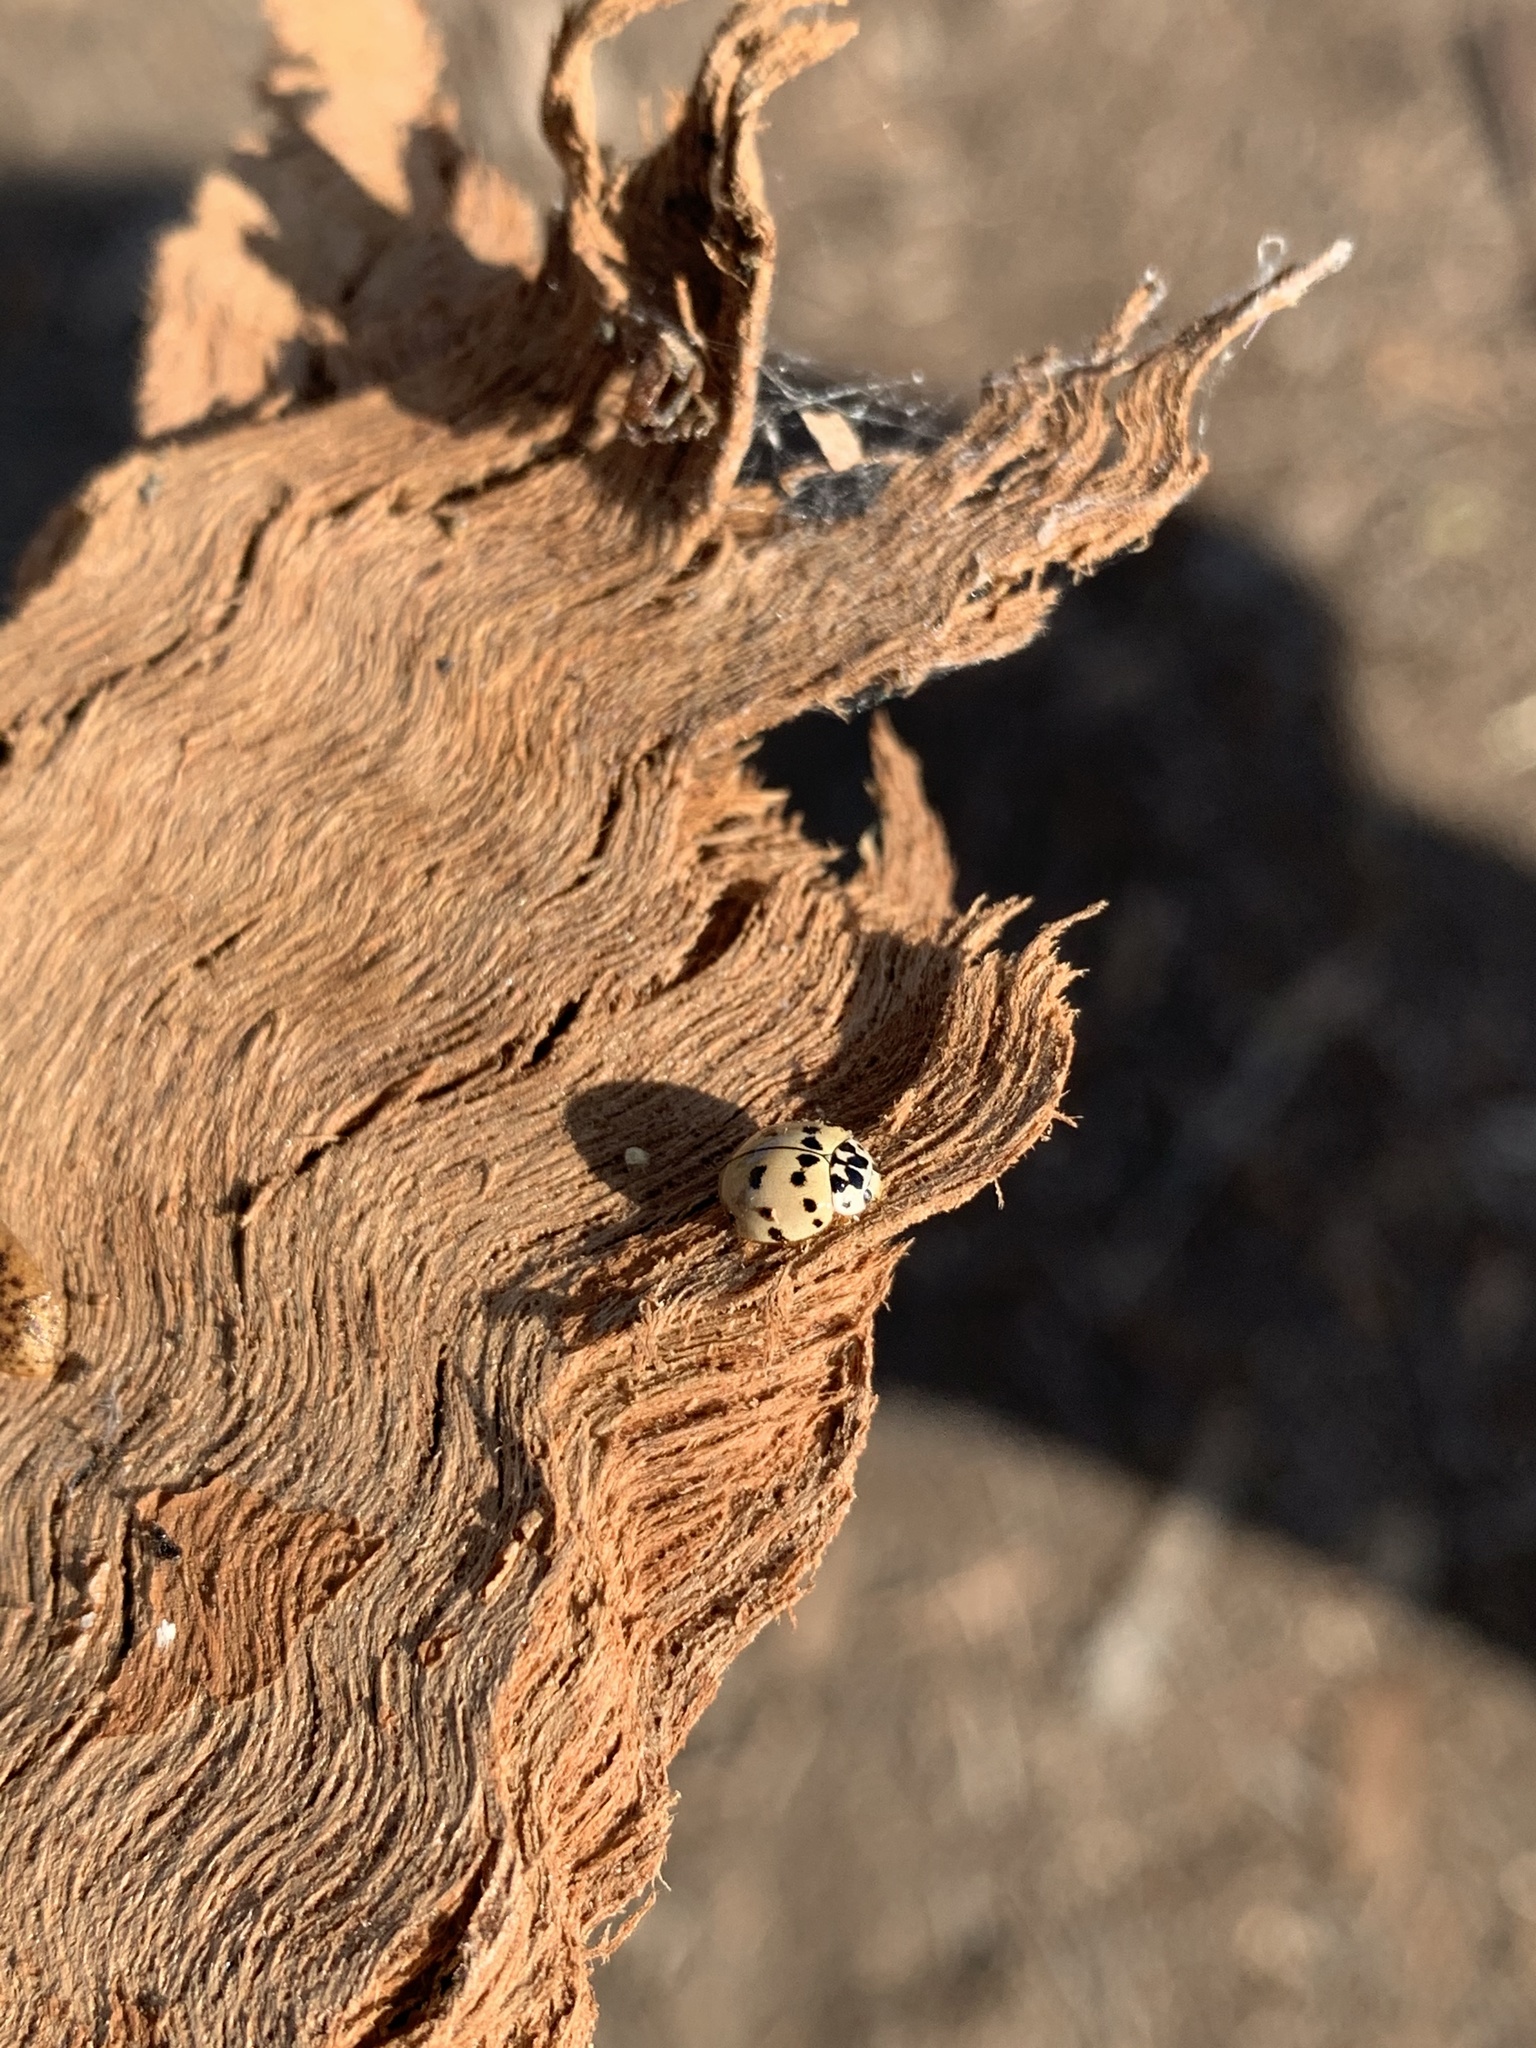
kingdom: Animalia
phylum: Arthropoda
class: Insecta
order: Coleoptera
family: Coccinellidae
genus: Olla
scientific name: Olla v-nigrum
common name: Ashy gray lady beetle
